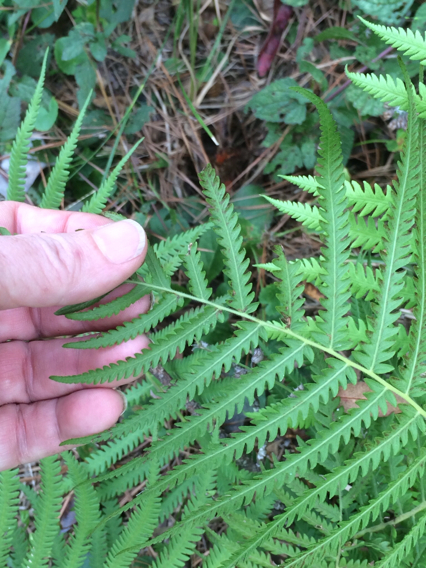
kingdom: Plantae
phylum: Tracheophyta
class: Polypodiopsida
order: Polypodiales
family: Thelypteridaceae
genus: Pelazoneuron
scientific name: Pelazoneuron kunthii
